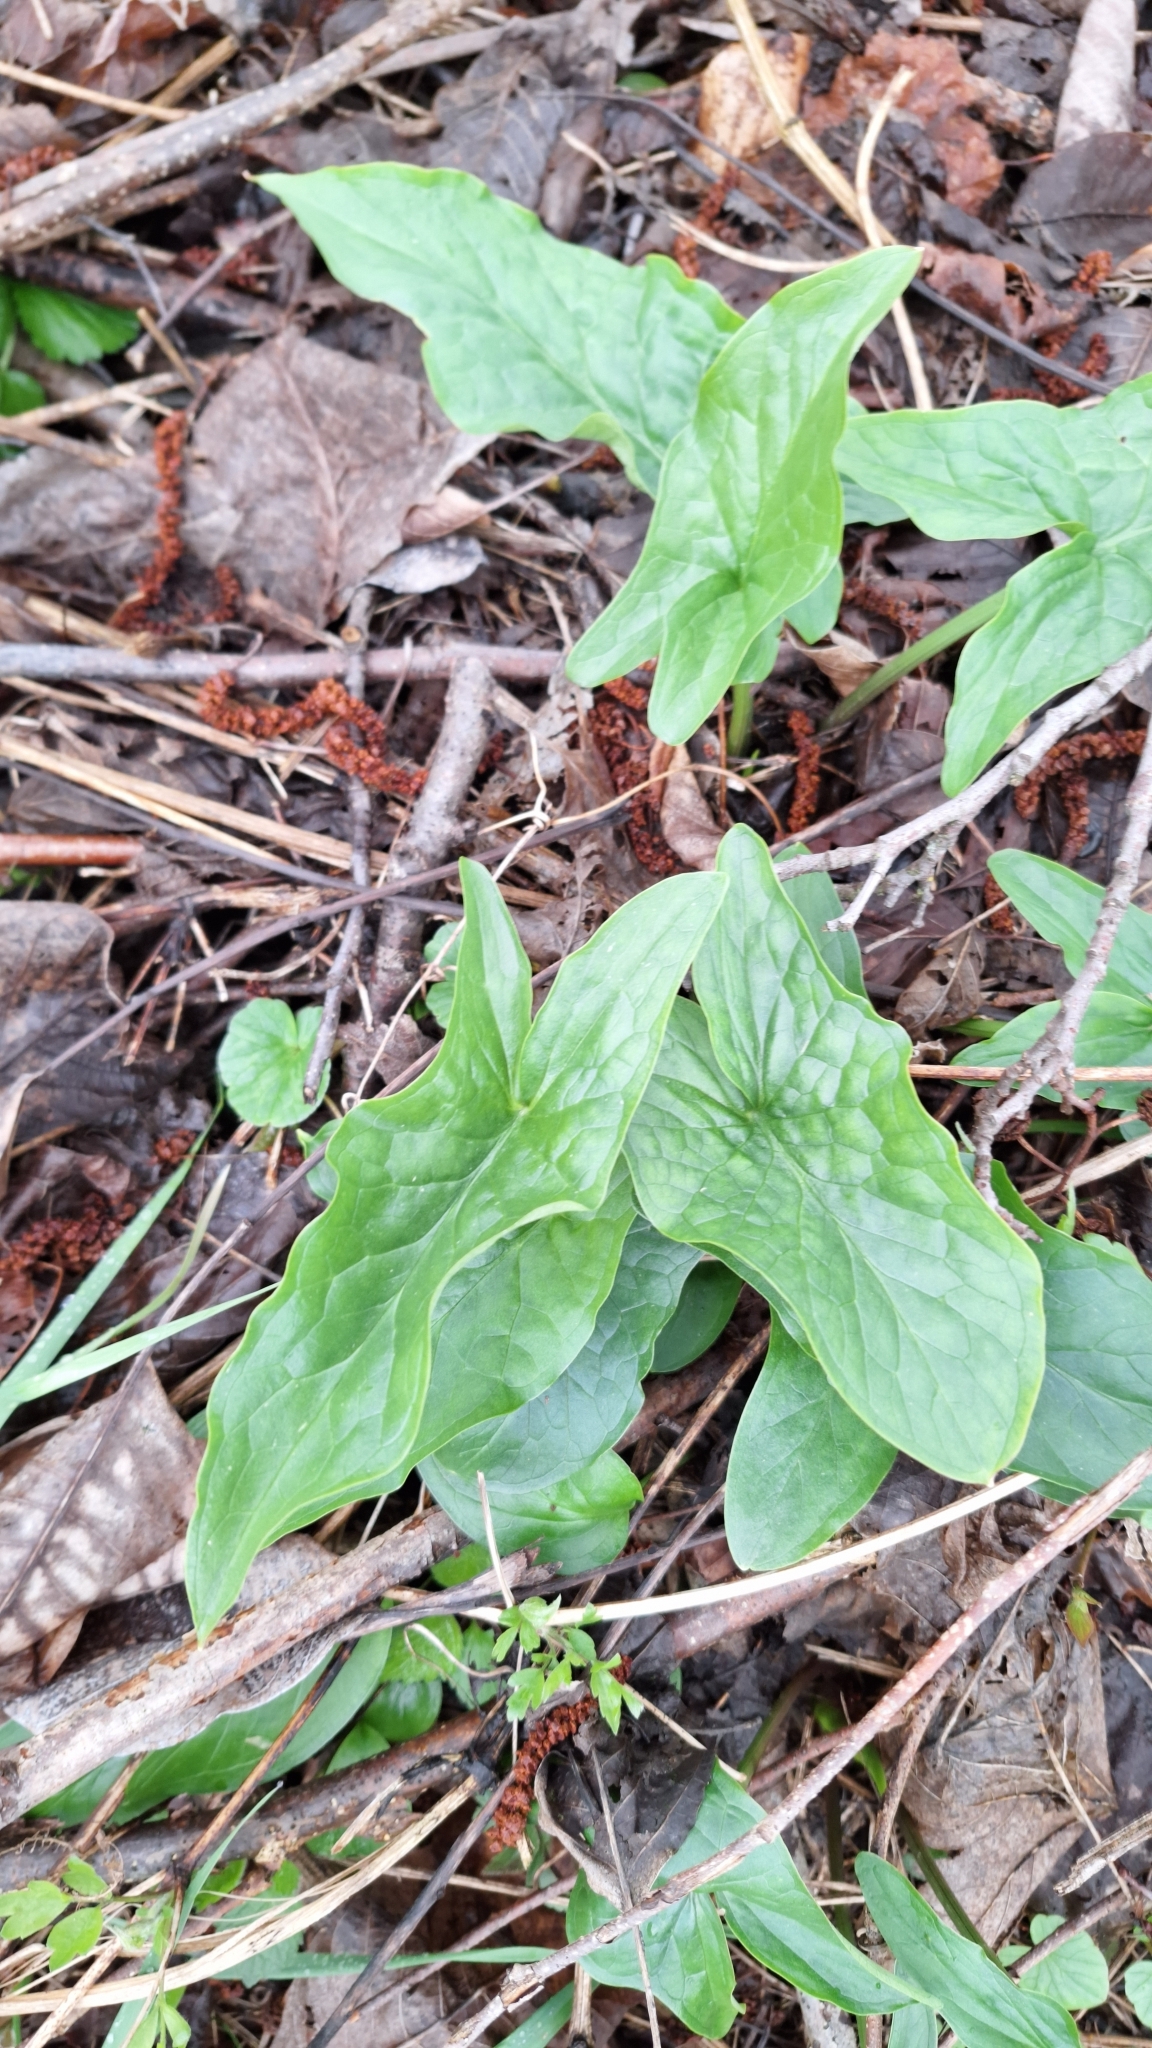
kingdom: Plantae
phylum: Tracheophyta
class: Liliopsida
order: Alismatales
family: Araceae
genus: Arum
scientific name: Arum maculatum
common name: Lords-and-ladies
